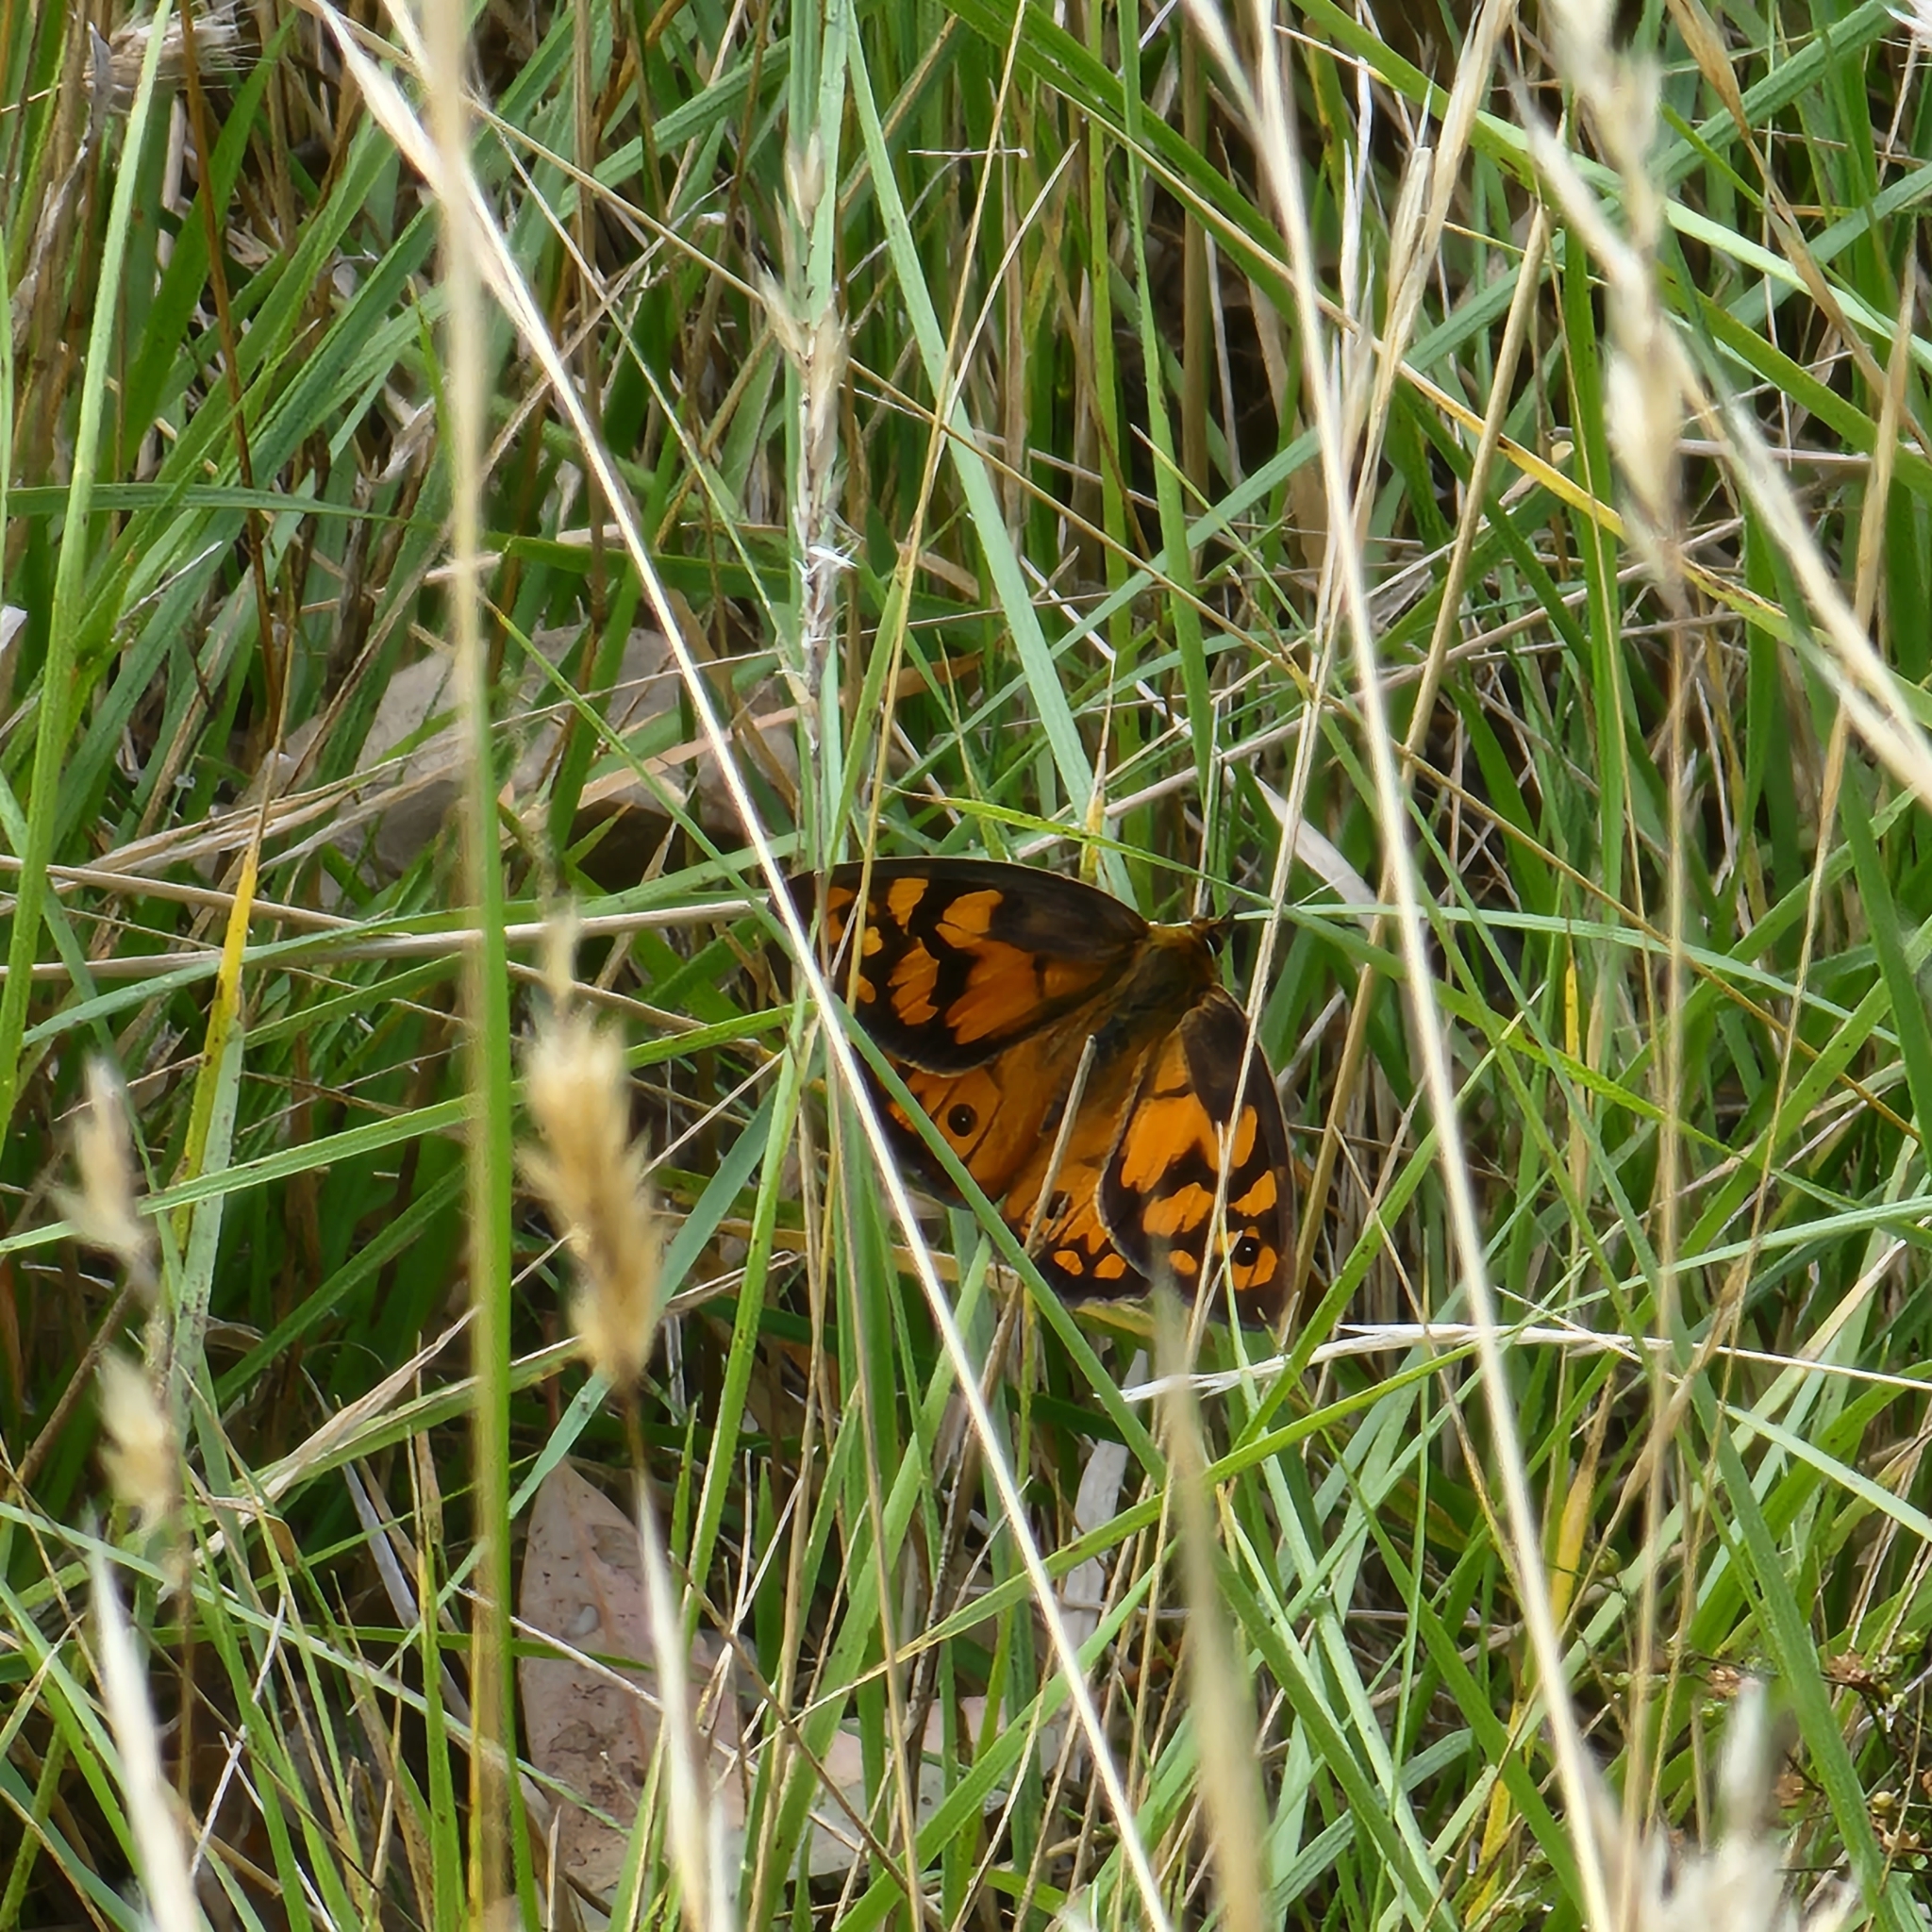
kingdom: Animalia
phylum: Arthropoda
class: Insecta
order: Lepidoptera
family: Nymphalidae
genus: Heteronympha
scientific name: Heteronympha penelope
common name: Shouldered brown
